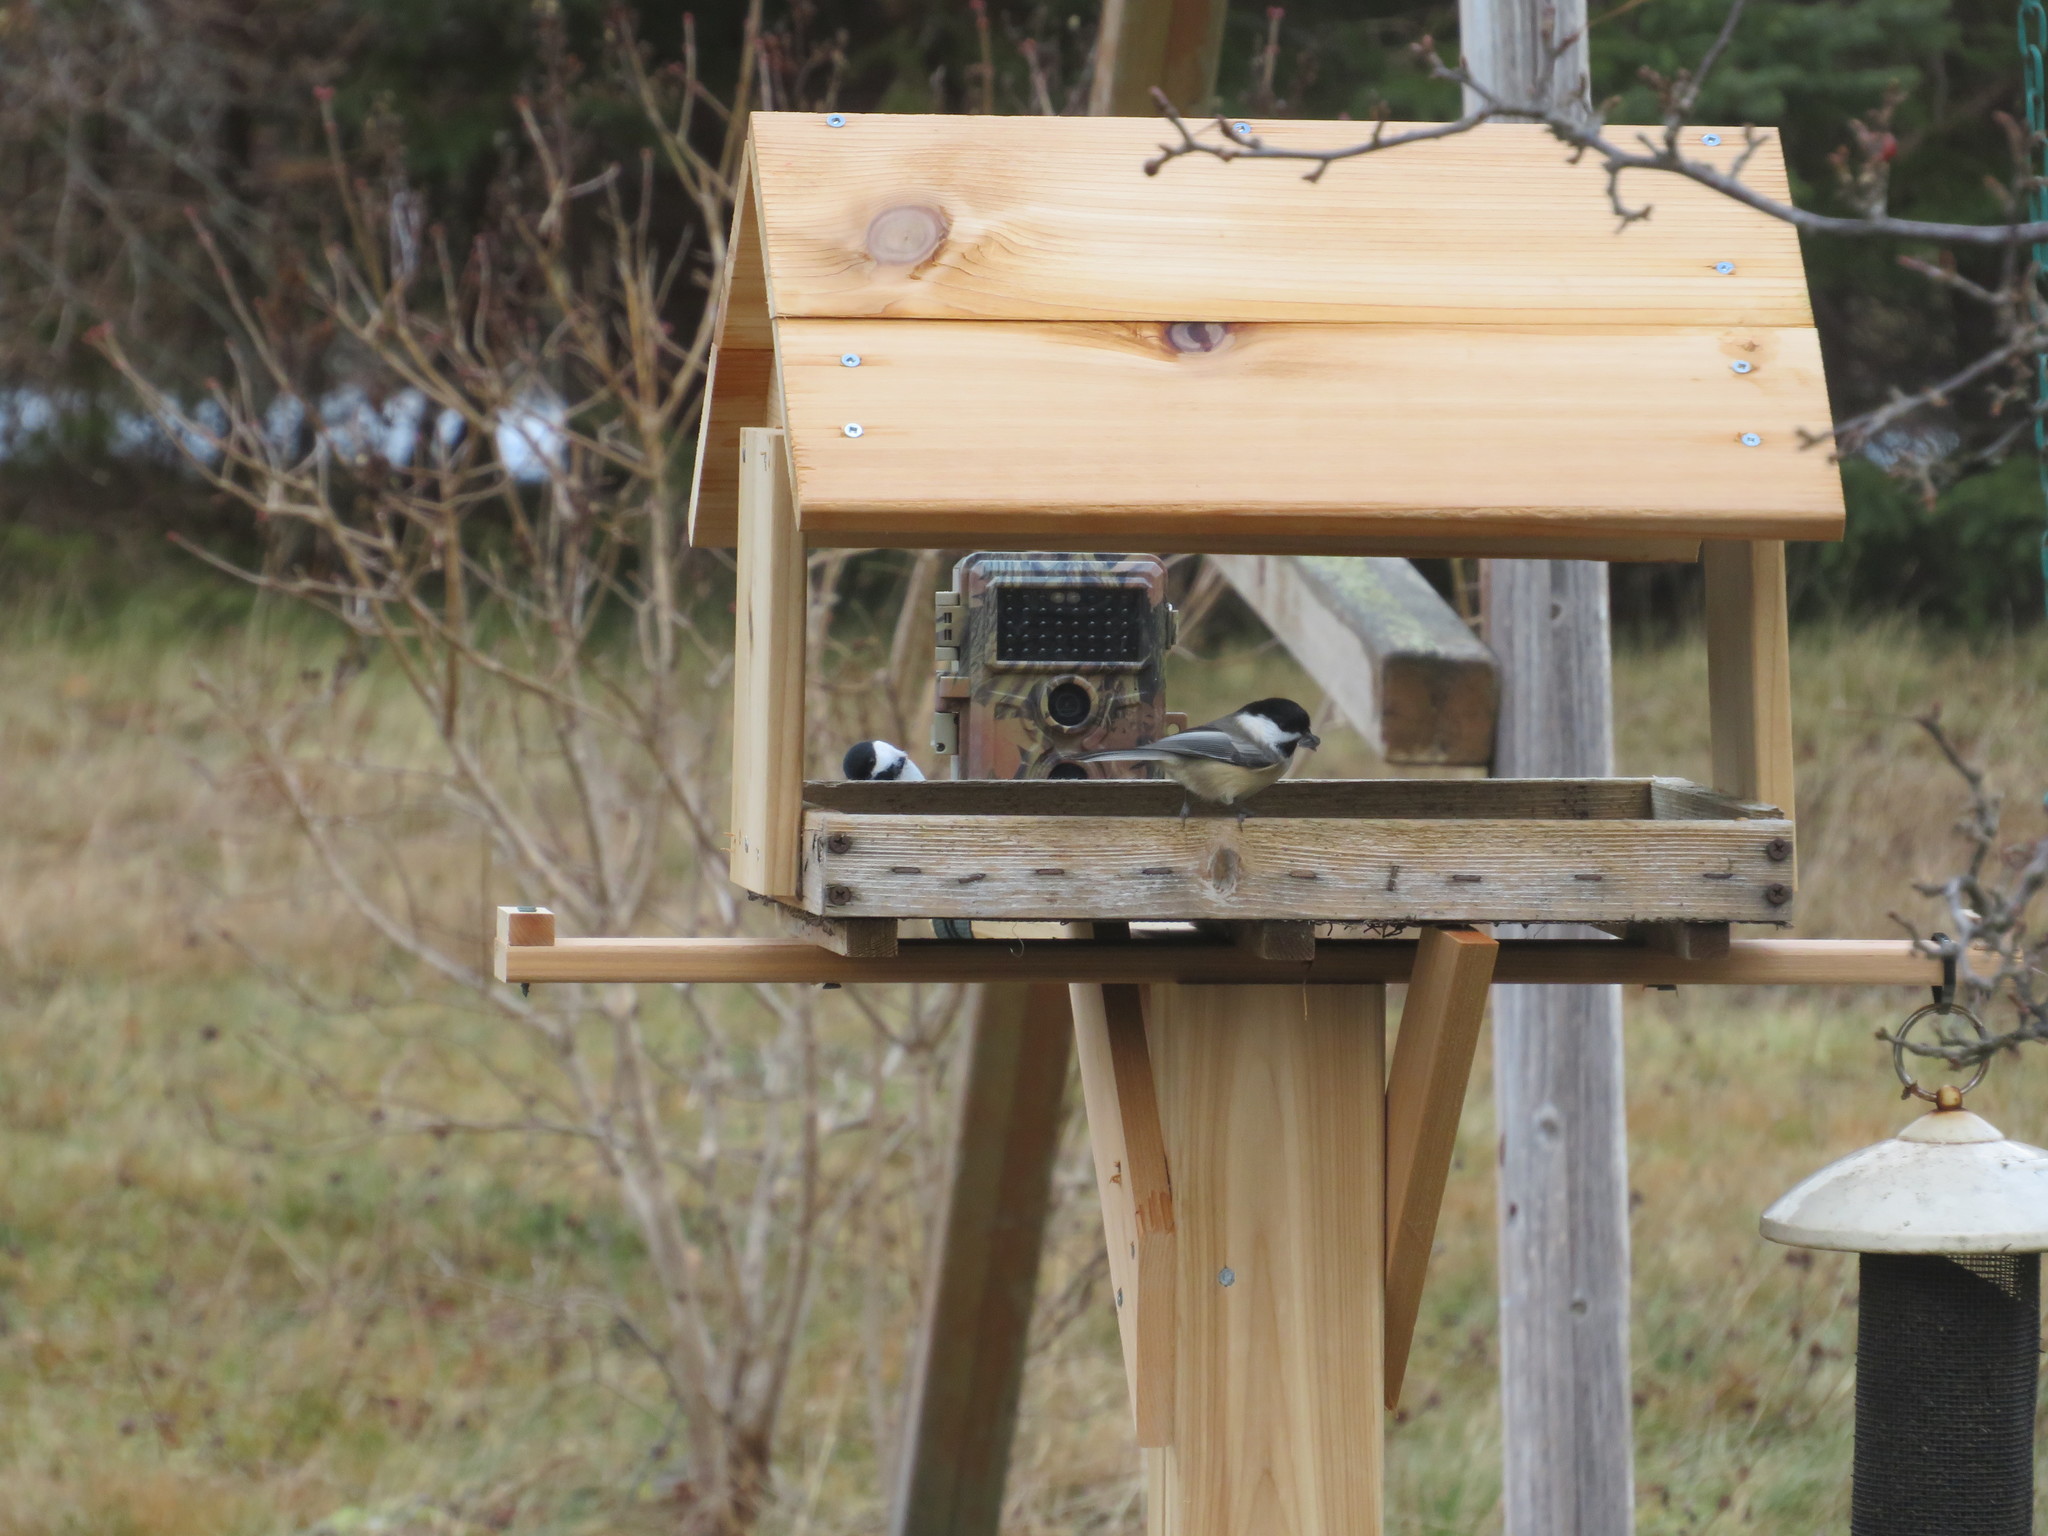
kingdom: Animalia
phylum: Chordata
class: Aves
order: Passeriformes
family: Paridae
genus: Poecile
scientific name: Poecile atricapillus
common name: Black-capped chickadee
